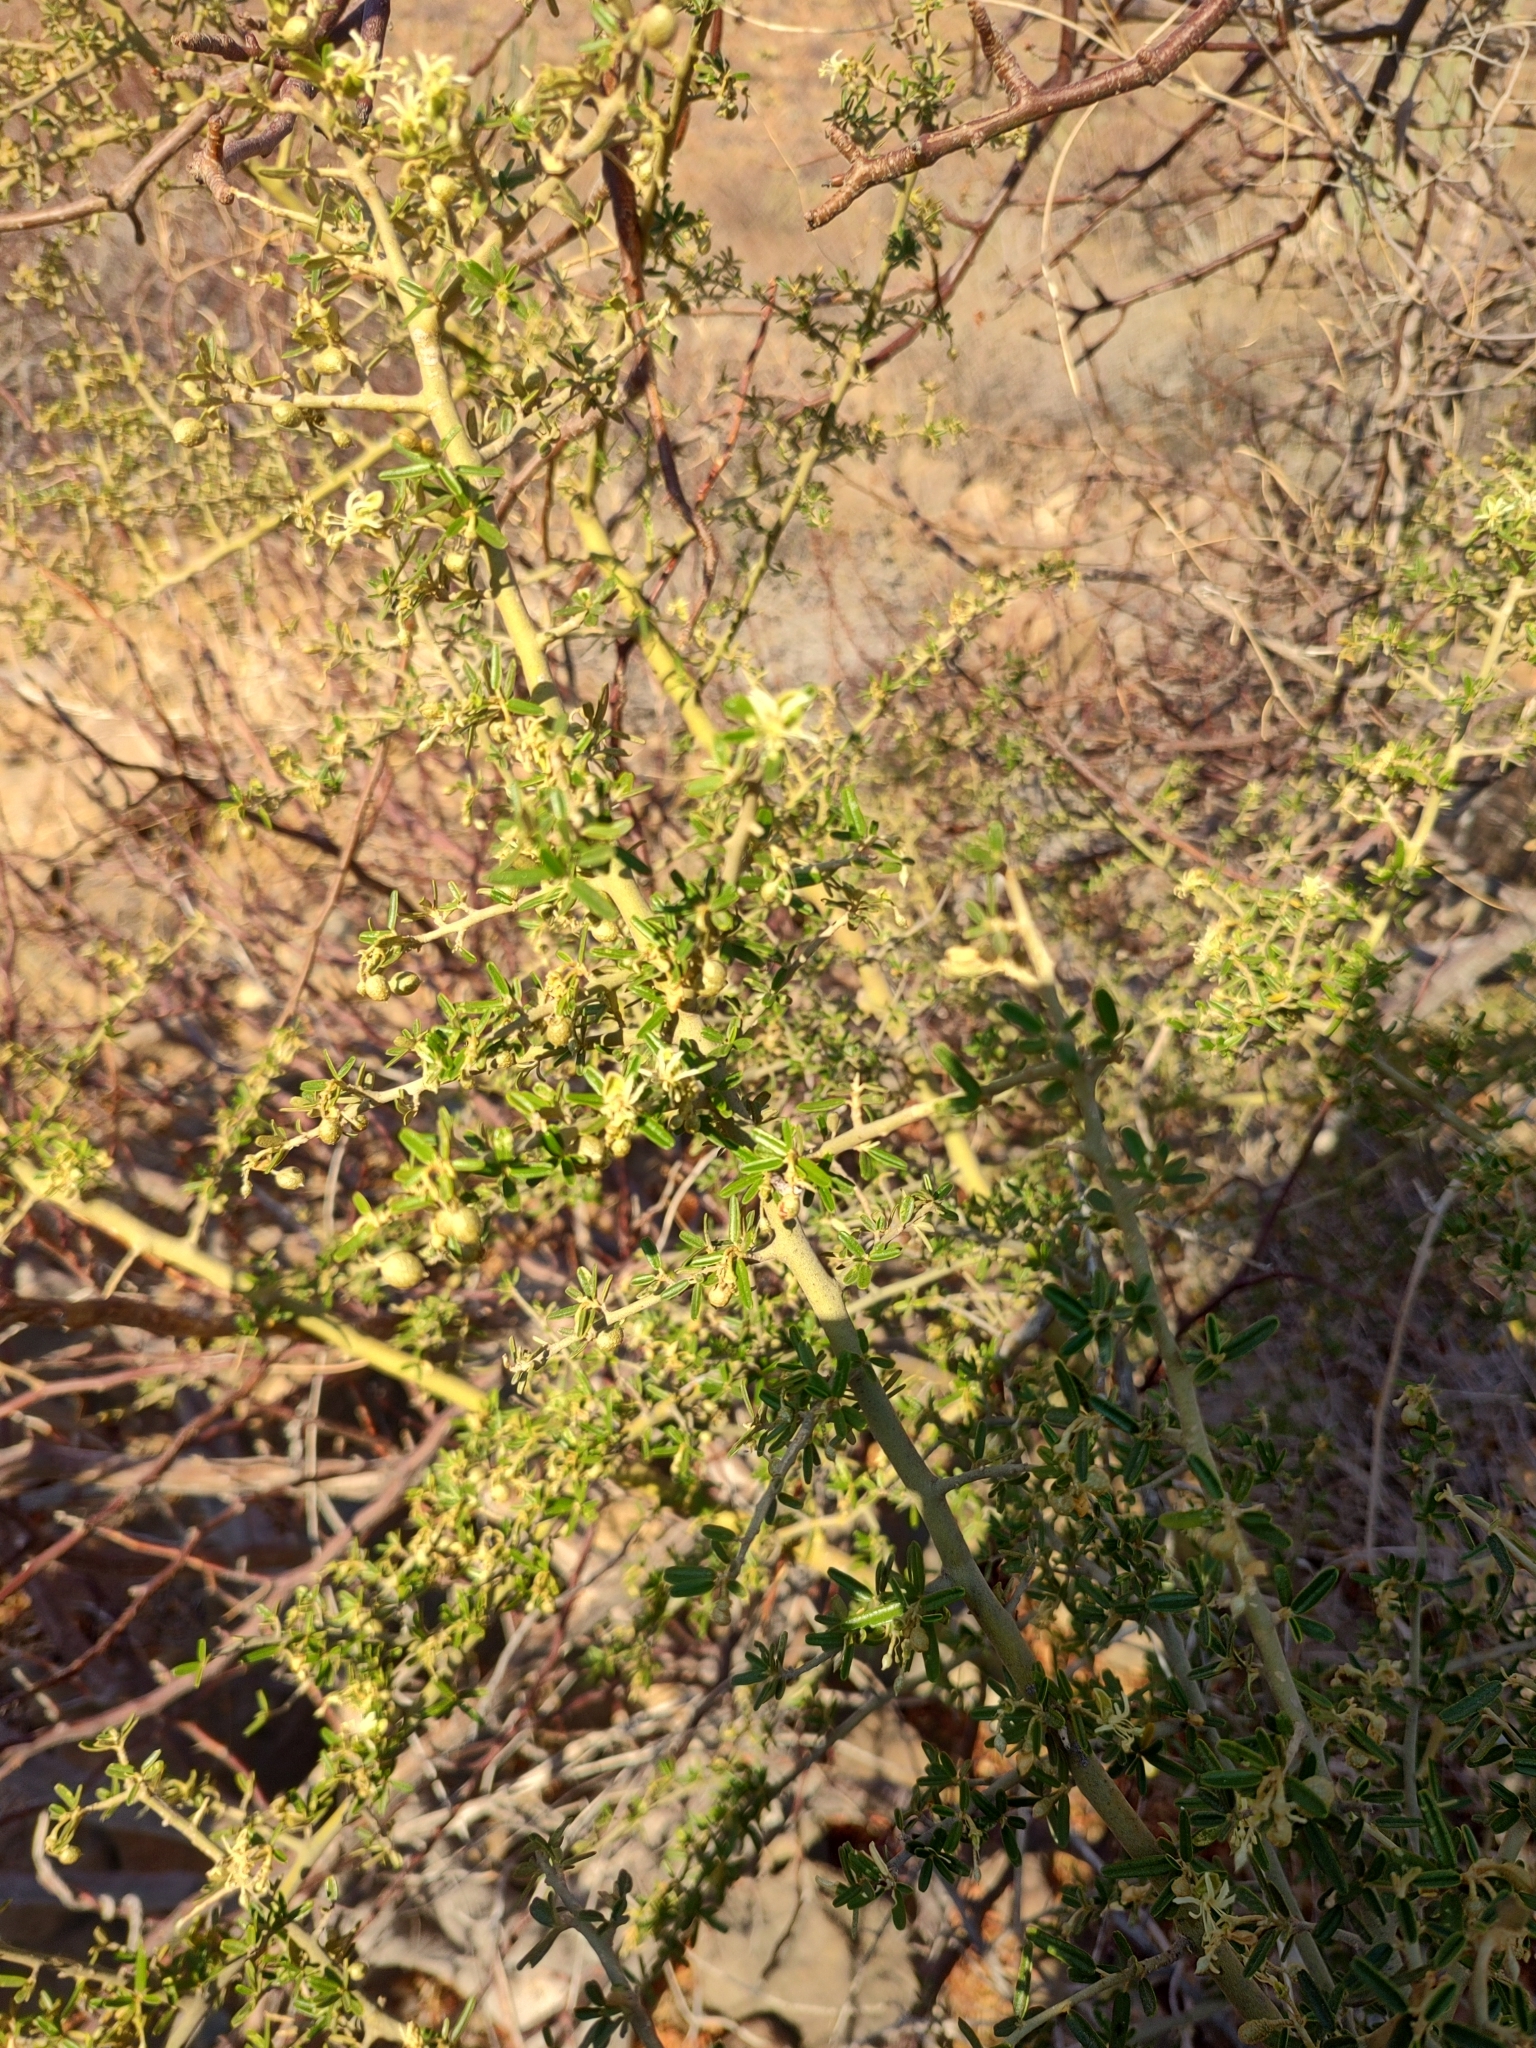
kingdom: Plantae
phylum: Tracheophyta
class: Magnoliopsida
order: Brassicales
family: Capparaceae
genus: Atamisquea
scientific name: Atamisquea emarginata
